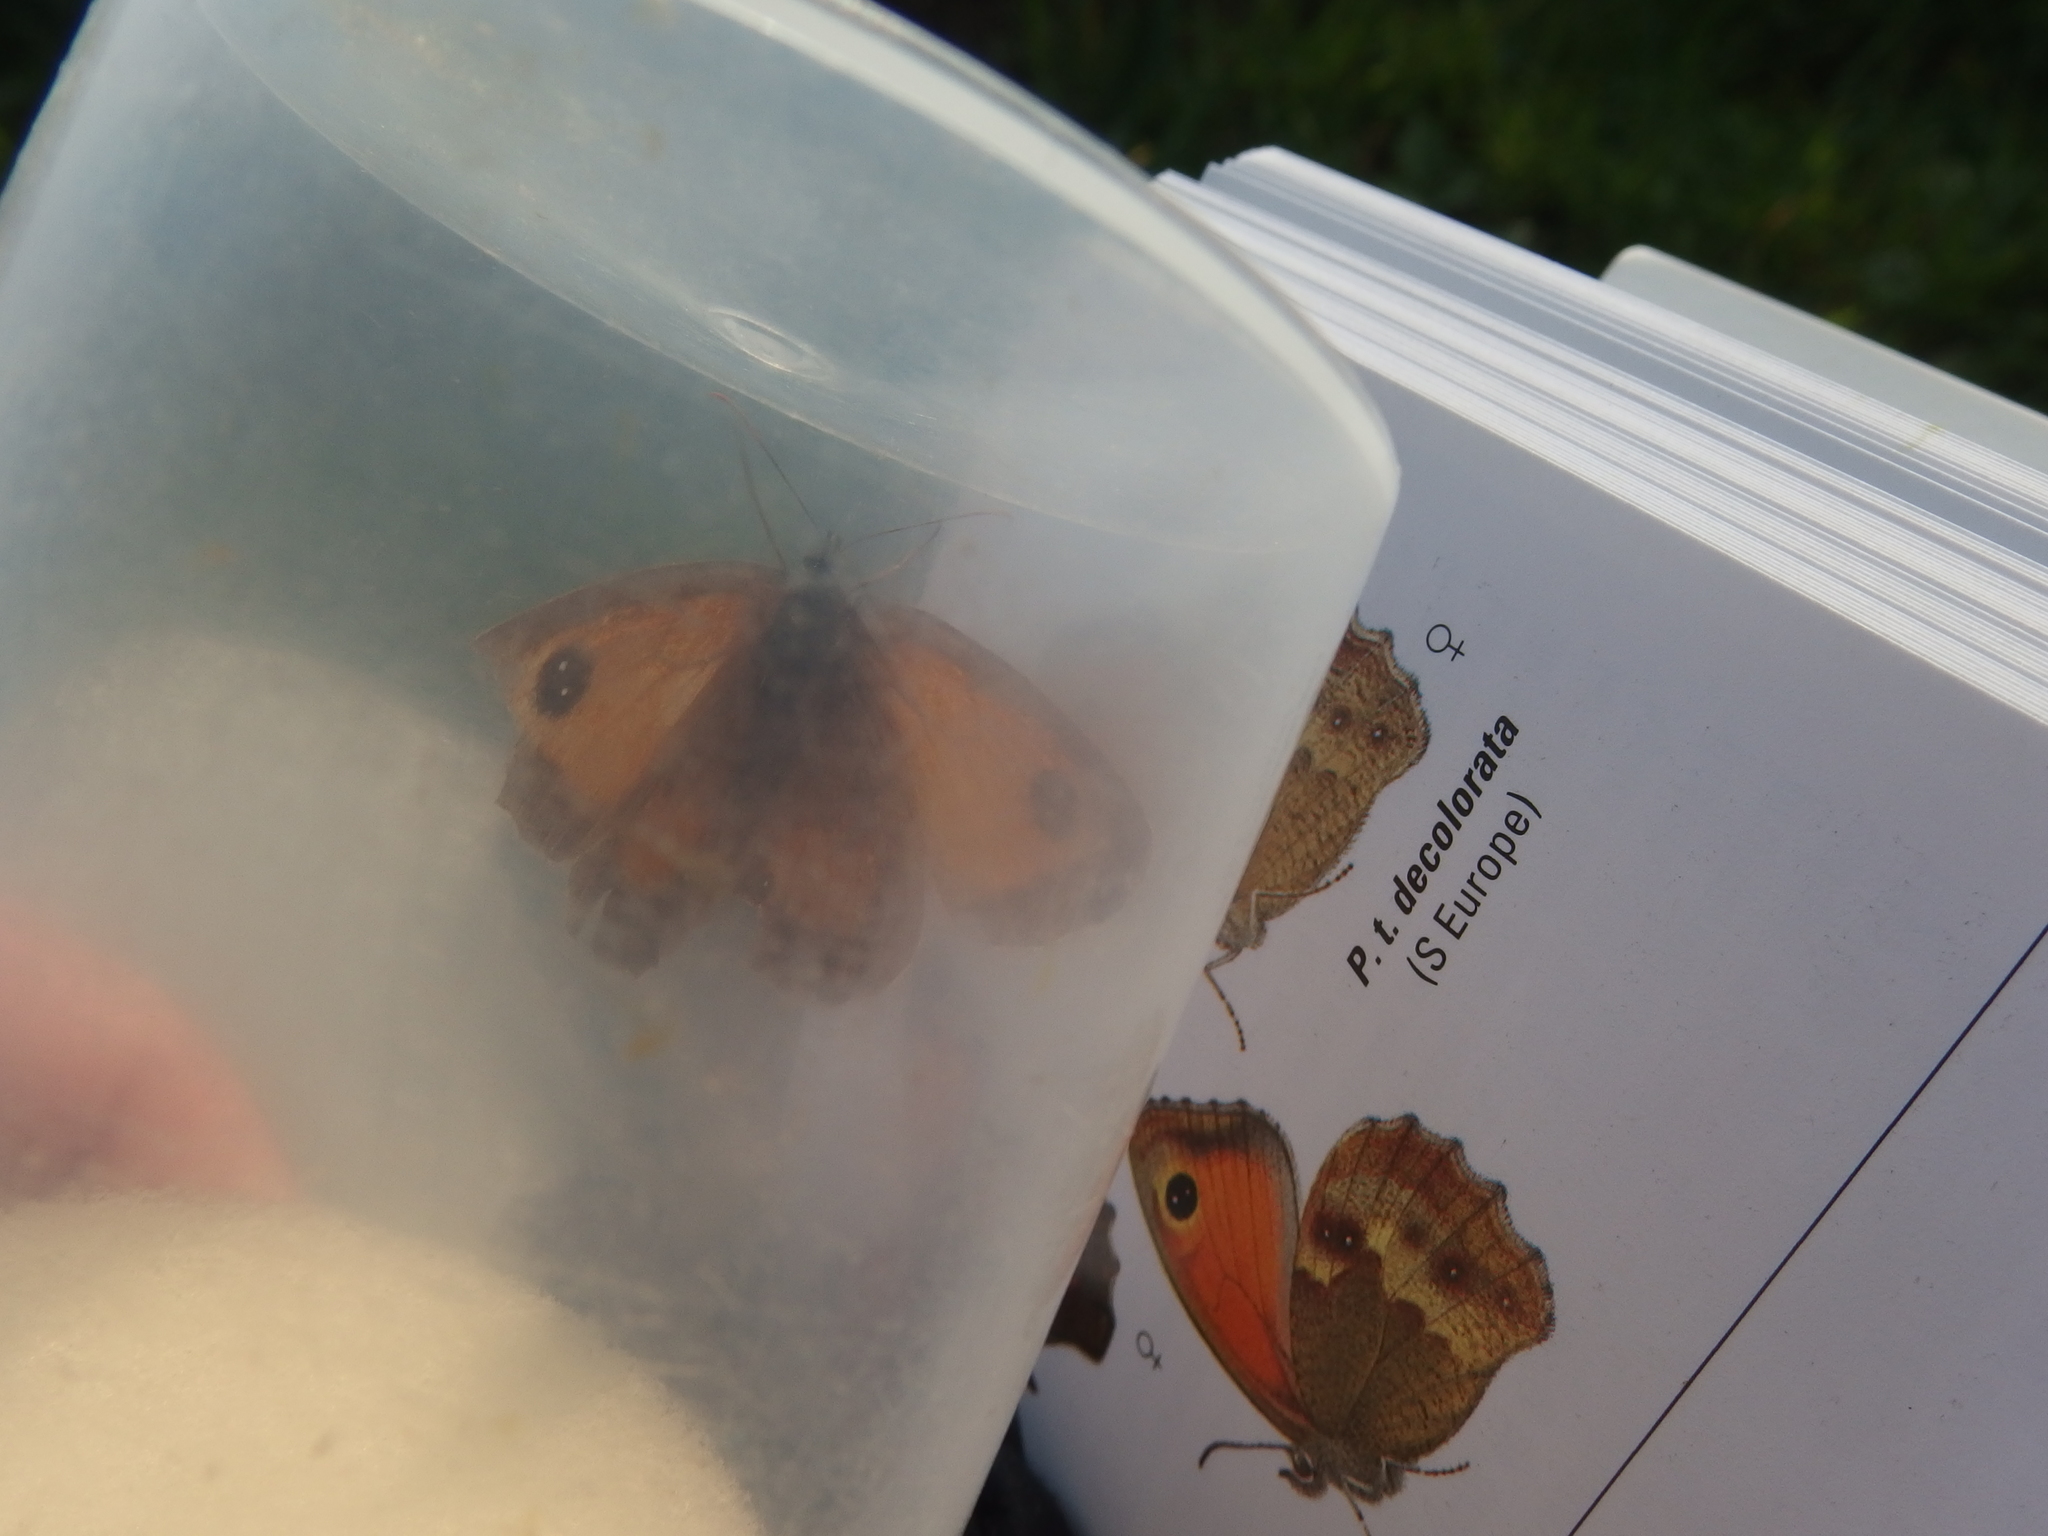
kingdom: Animalia
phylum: Arthropoda
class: Insecta
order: Lepidoptera
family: Nymphalidae
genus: Pyronia
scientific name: Pyronia tithonus
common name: Gatekeeper
